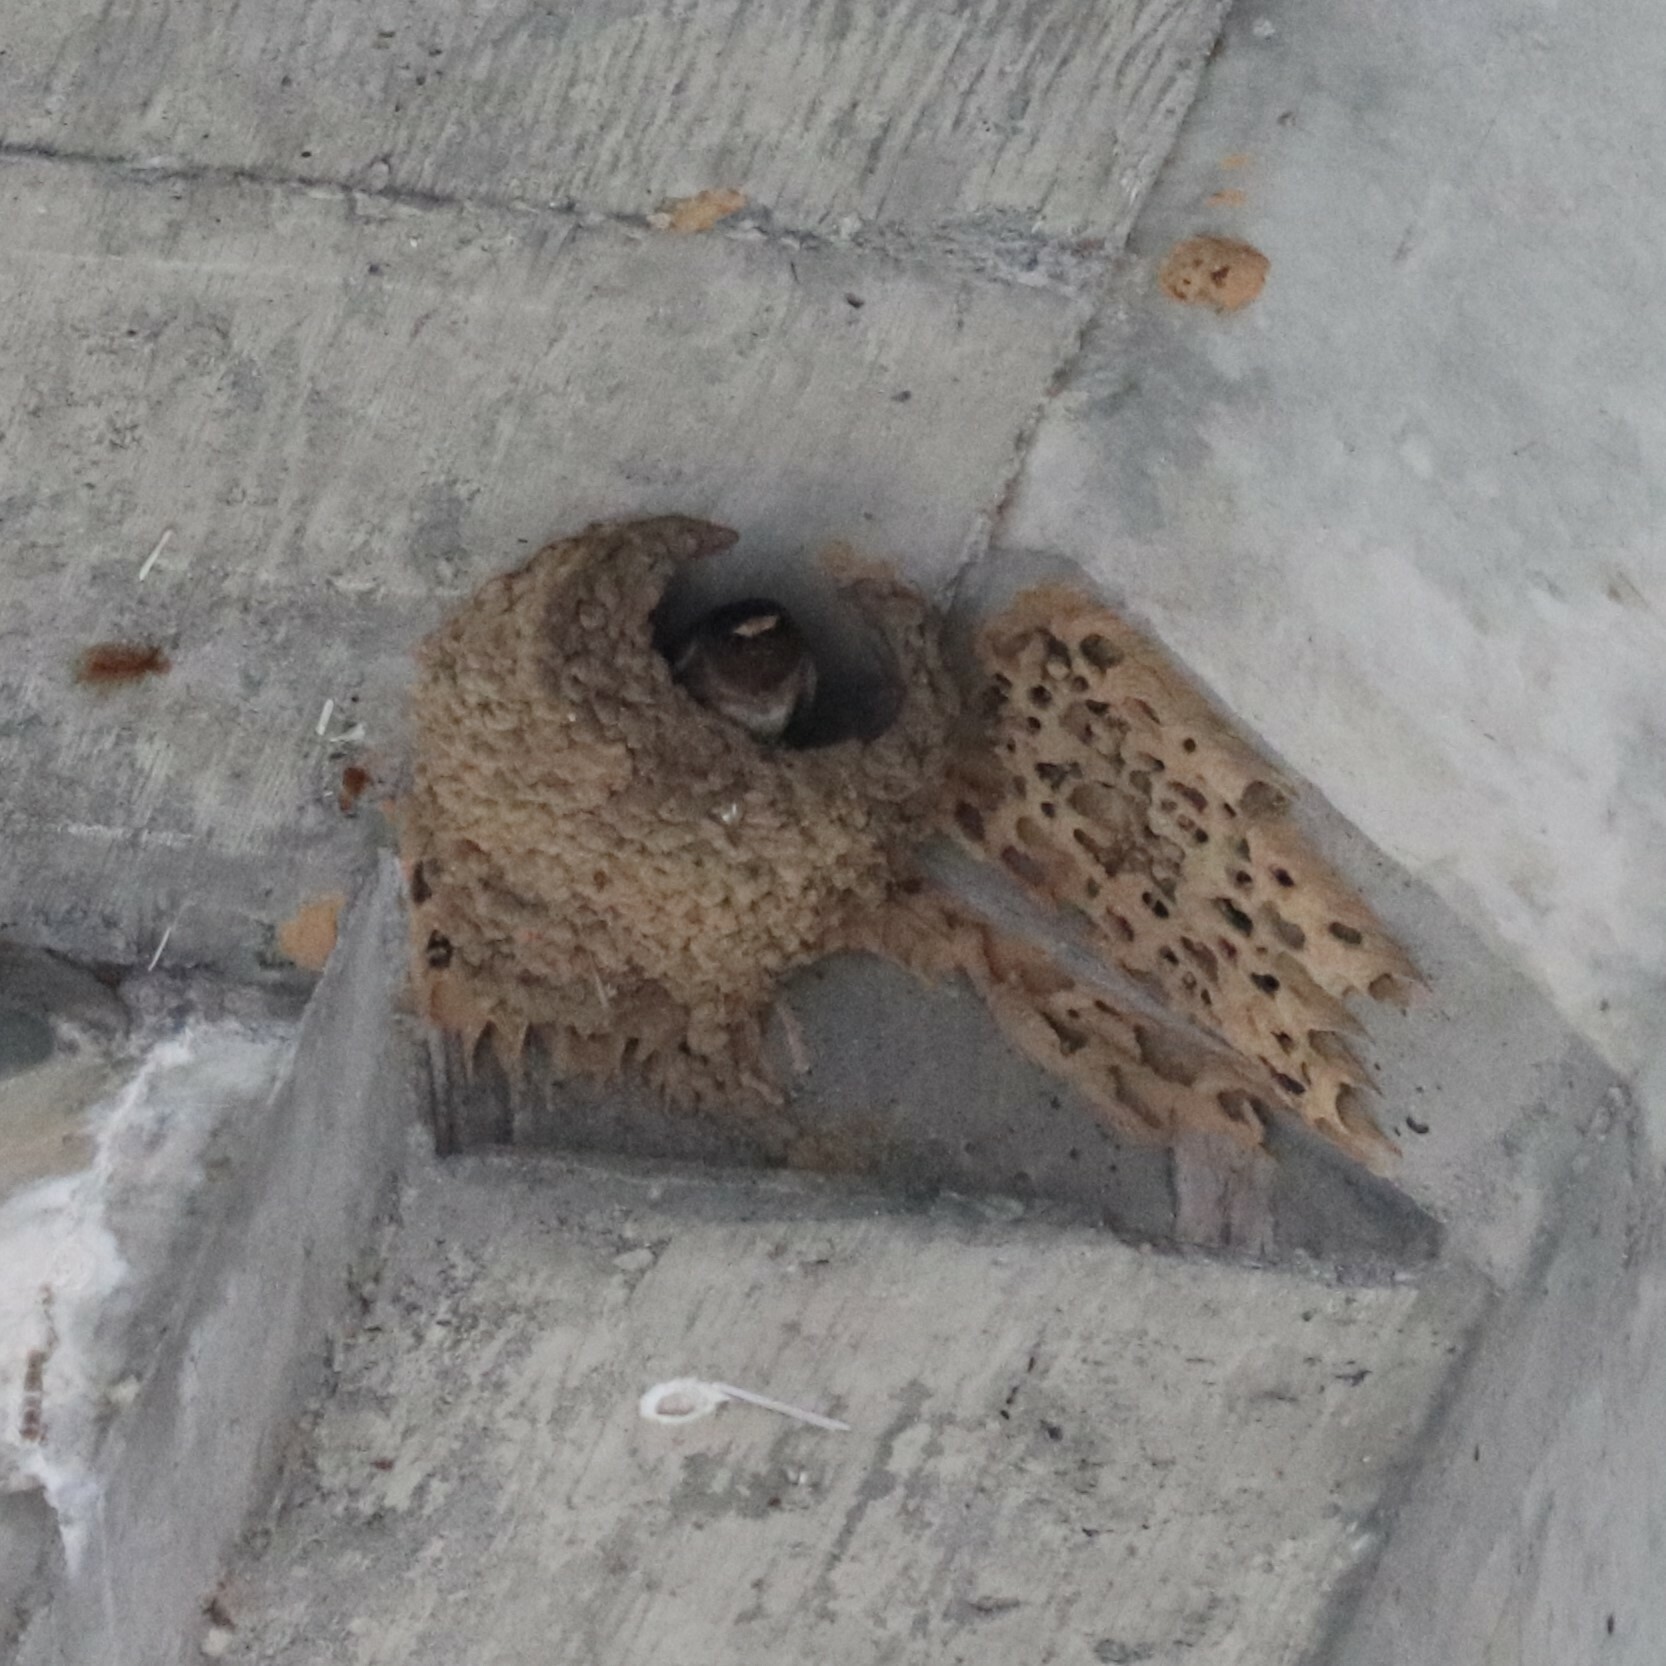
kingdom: Animalia
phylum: Chordata
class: Aves
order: Passeriformes
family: Hirundinidae
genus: Petrochelidon
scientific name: Petrochelidon pyrrhonota
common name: American cliff swallow
